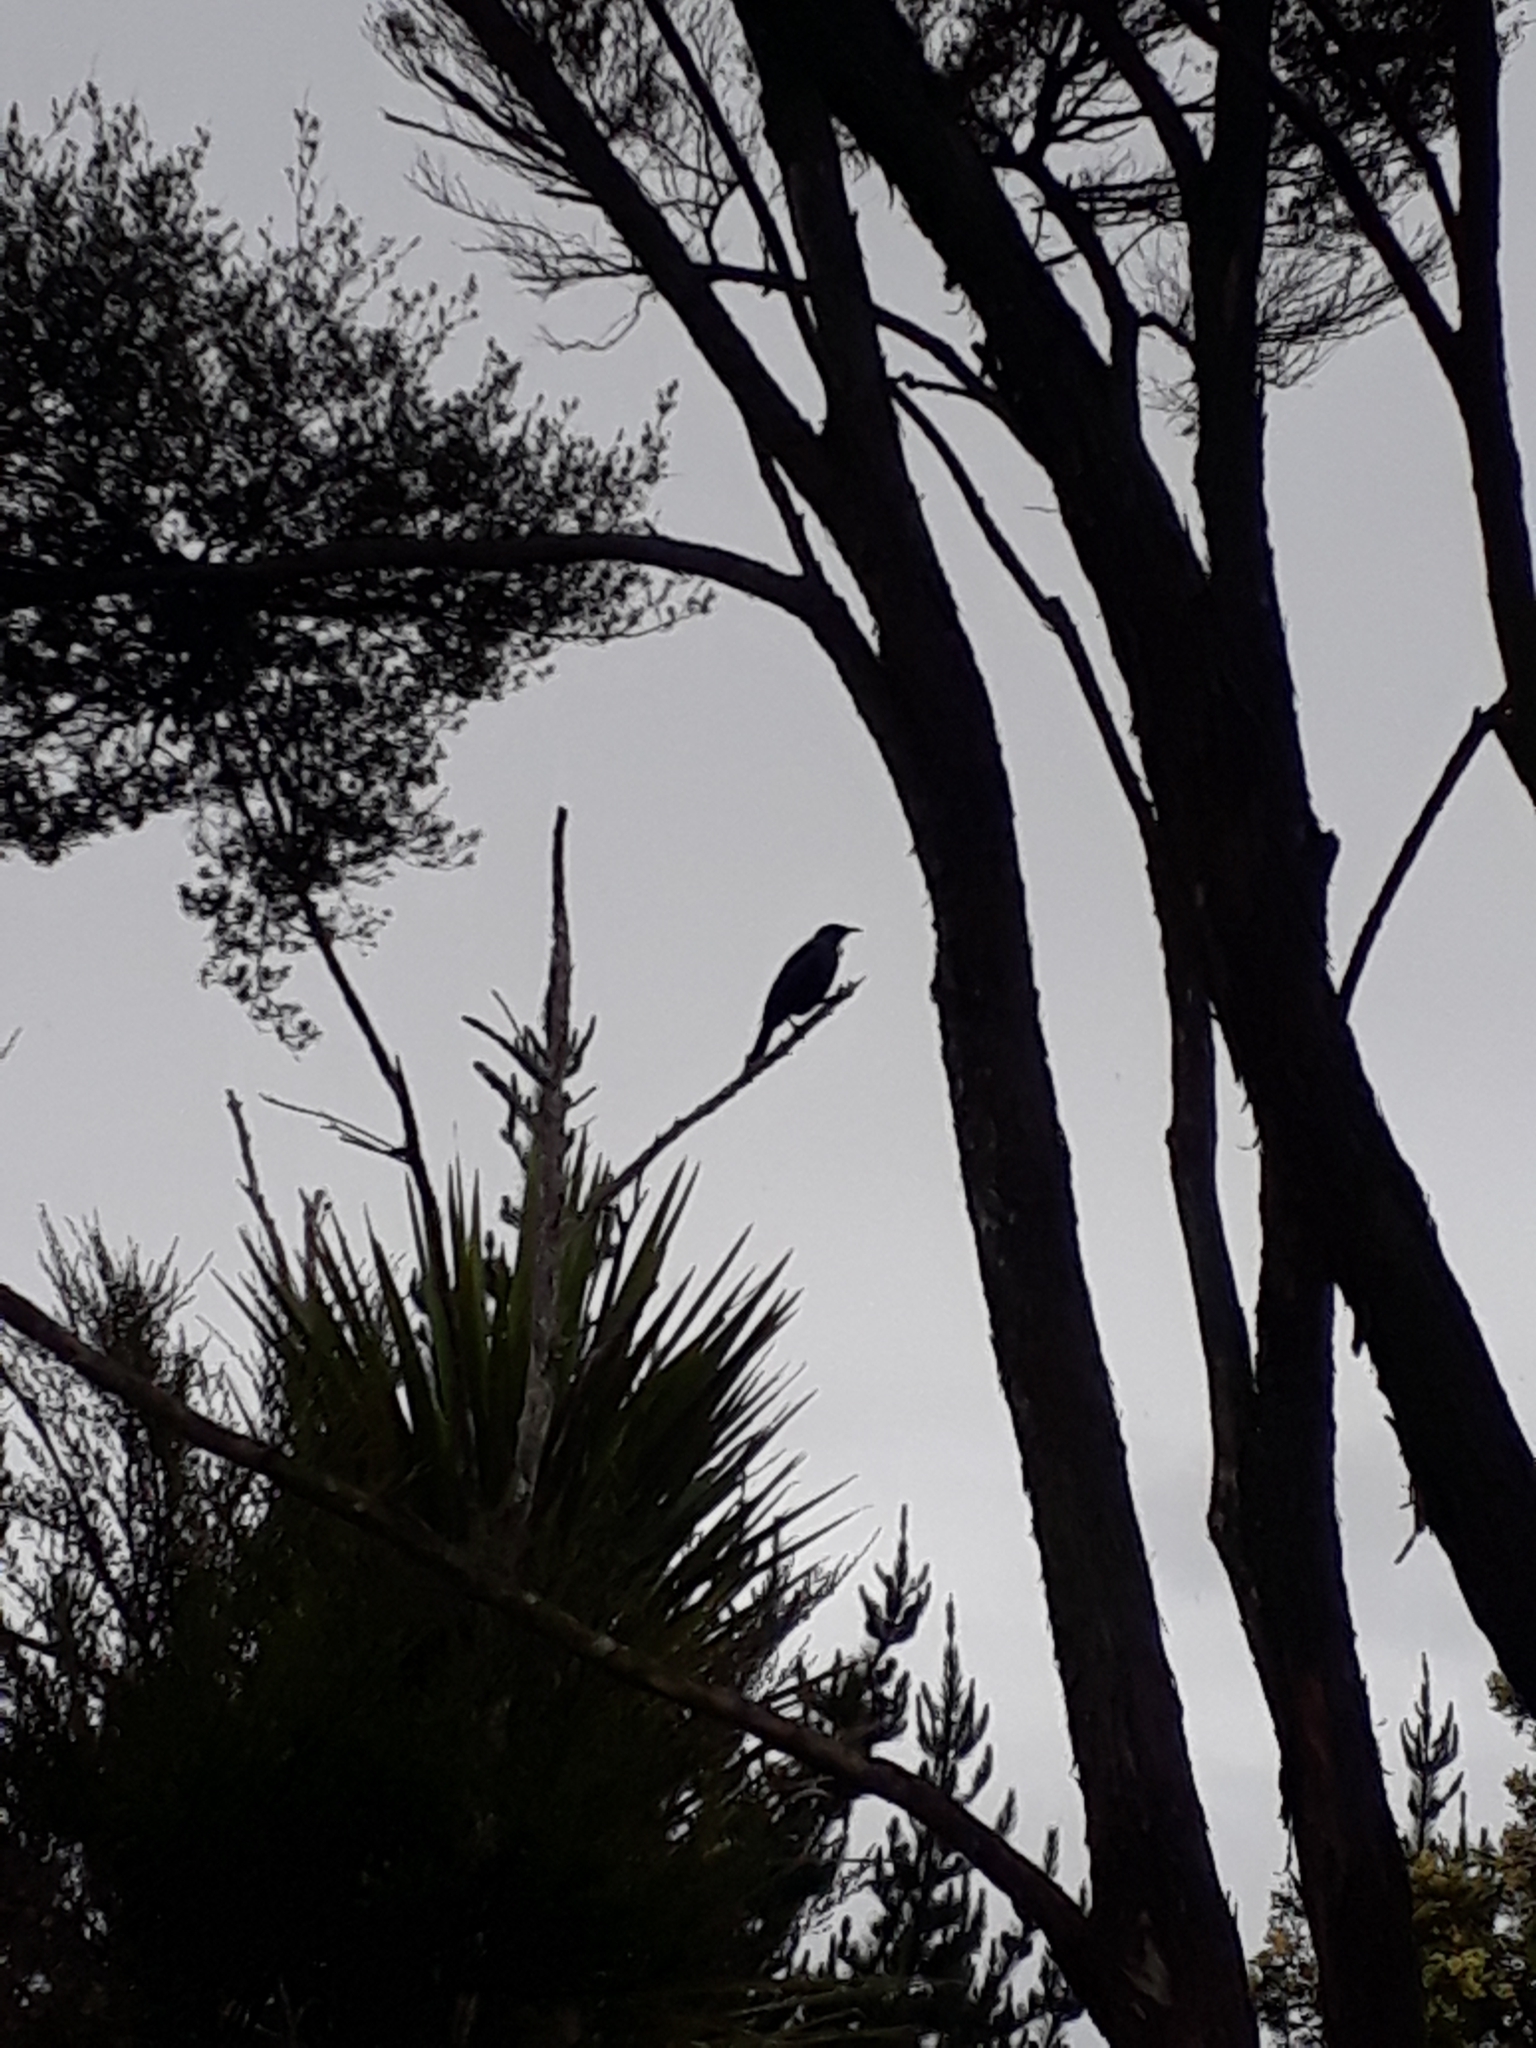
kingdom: Animalia
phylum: Chordata
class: Aves
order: Passeriformes
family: Meliphagidae
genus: Prosthemadera
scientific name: Prosthemadera novaeseelandiae
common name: Tui
